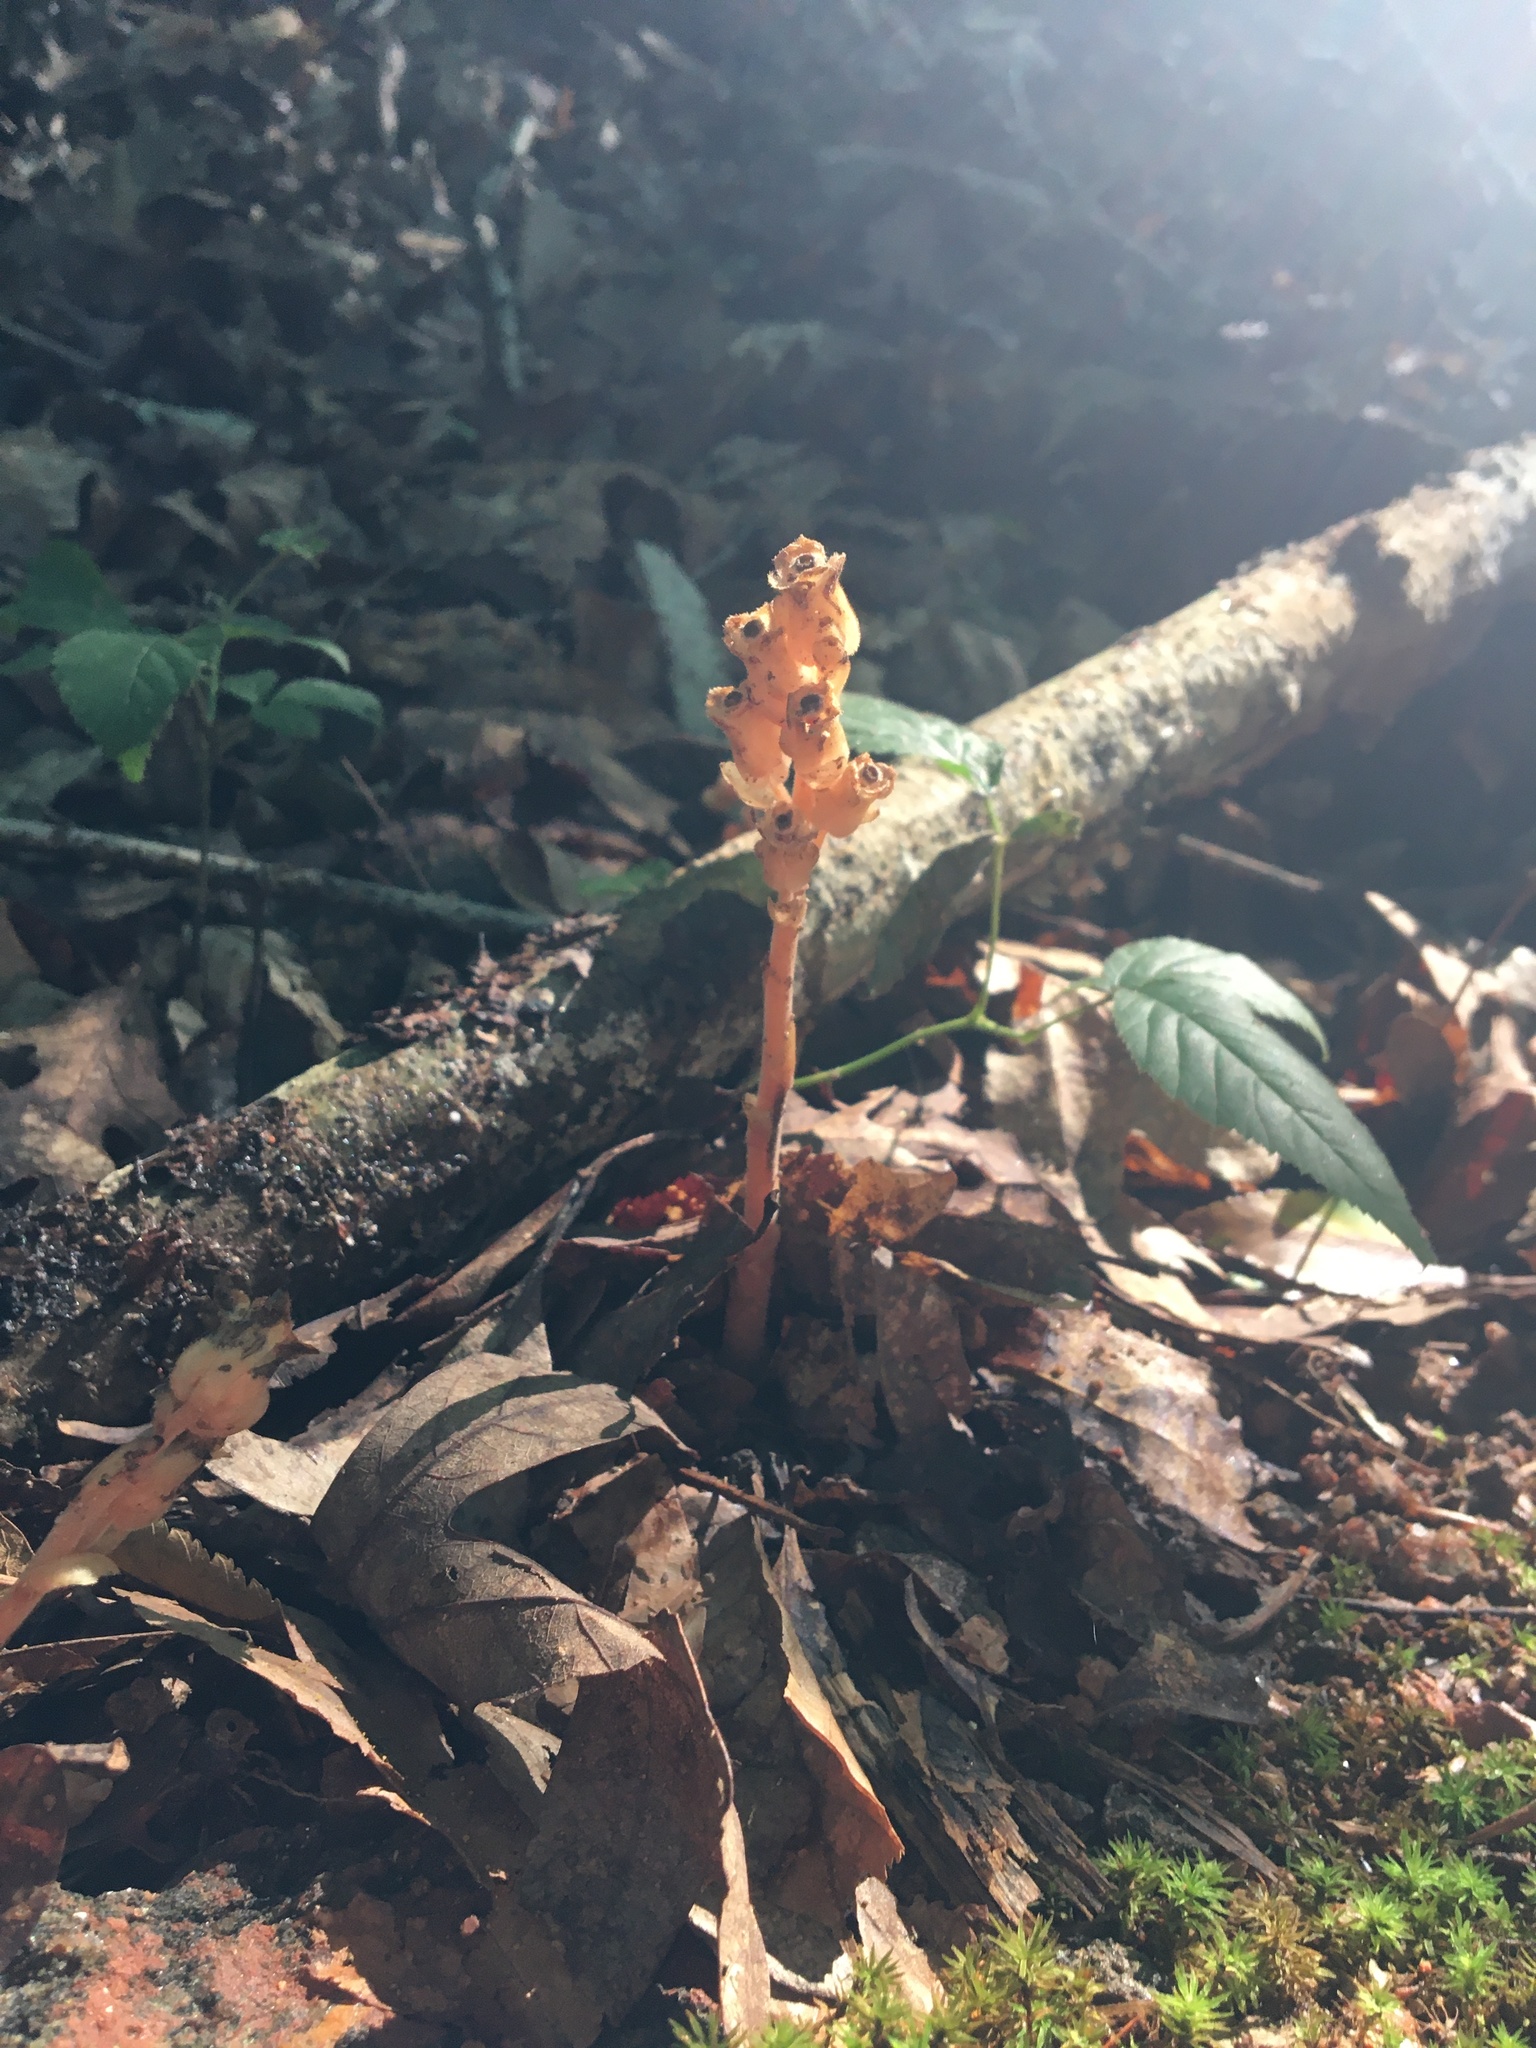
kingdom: Plantae
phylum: Tracheophyta
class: Magnoliopsida
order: Ericales
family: Ericaceae
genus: Hypopitys
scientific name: Hypopitys monotropa
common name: Yellow bird's-nest
